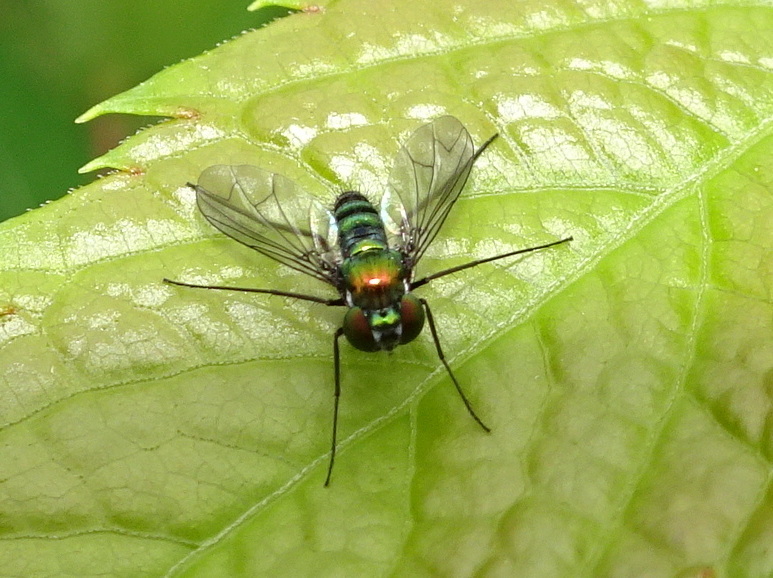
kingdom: Animalia
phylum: Arthropoda
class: Insecta
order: Diptera
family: Dolichopodidae
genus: Condylostylus
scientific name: Condylostylus patibulatus
